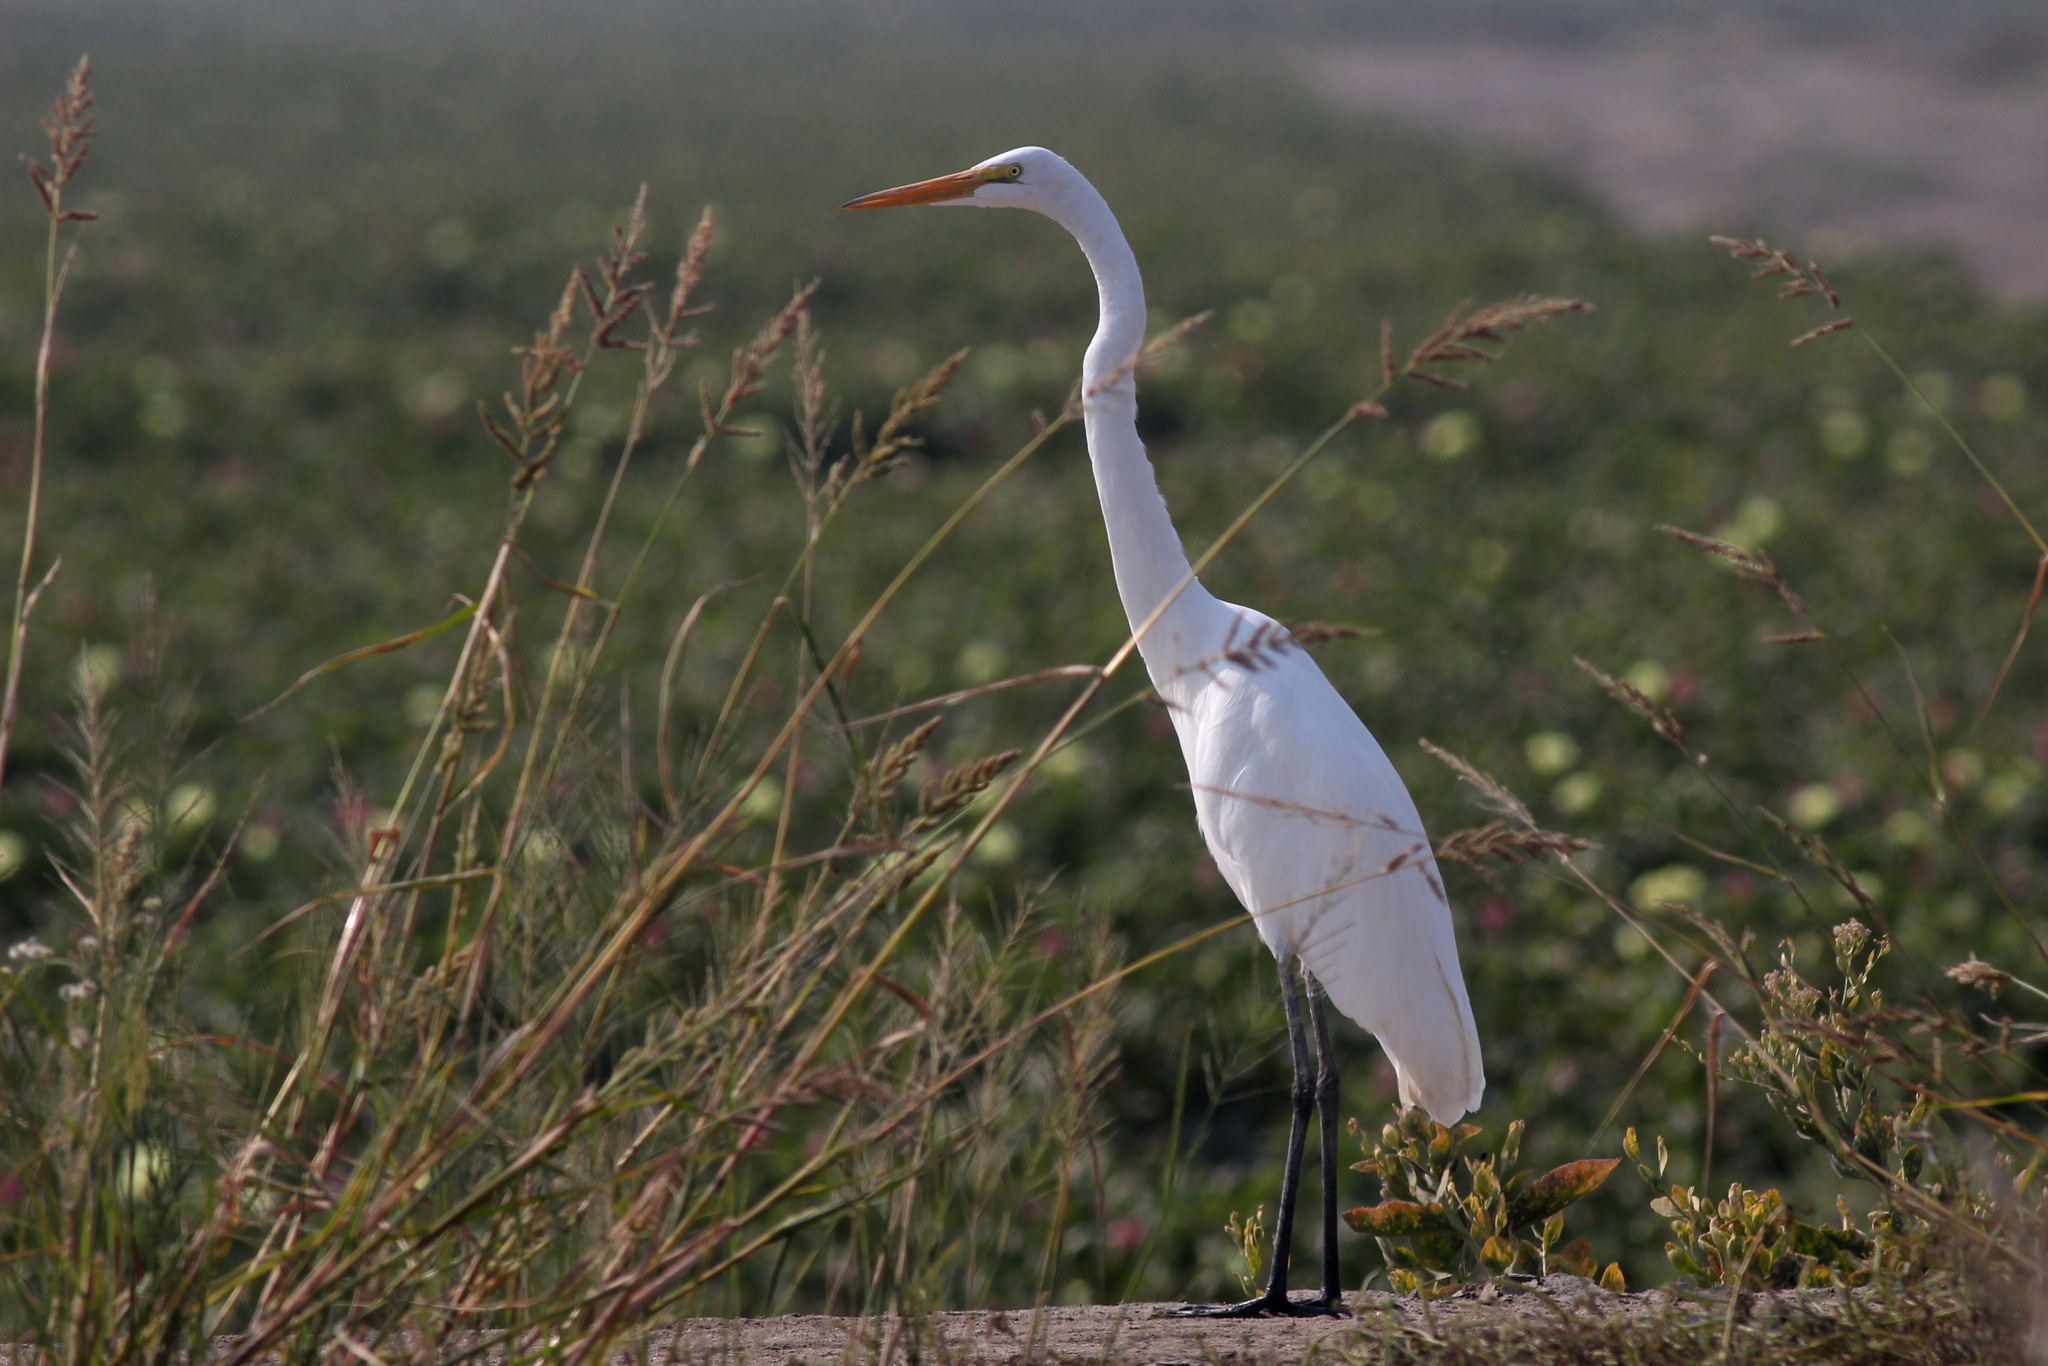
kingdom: Animalia
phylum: Chordata
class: Aves
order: Pelecaniformes
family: Ardeidae
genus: Ardea
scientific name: Ardea alba
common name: Great egret
